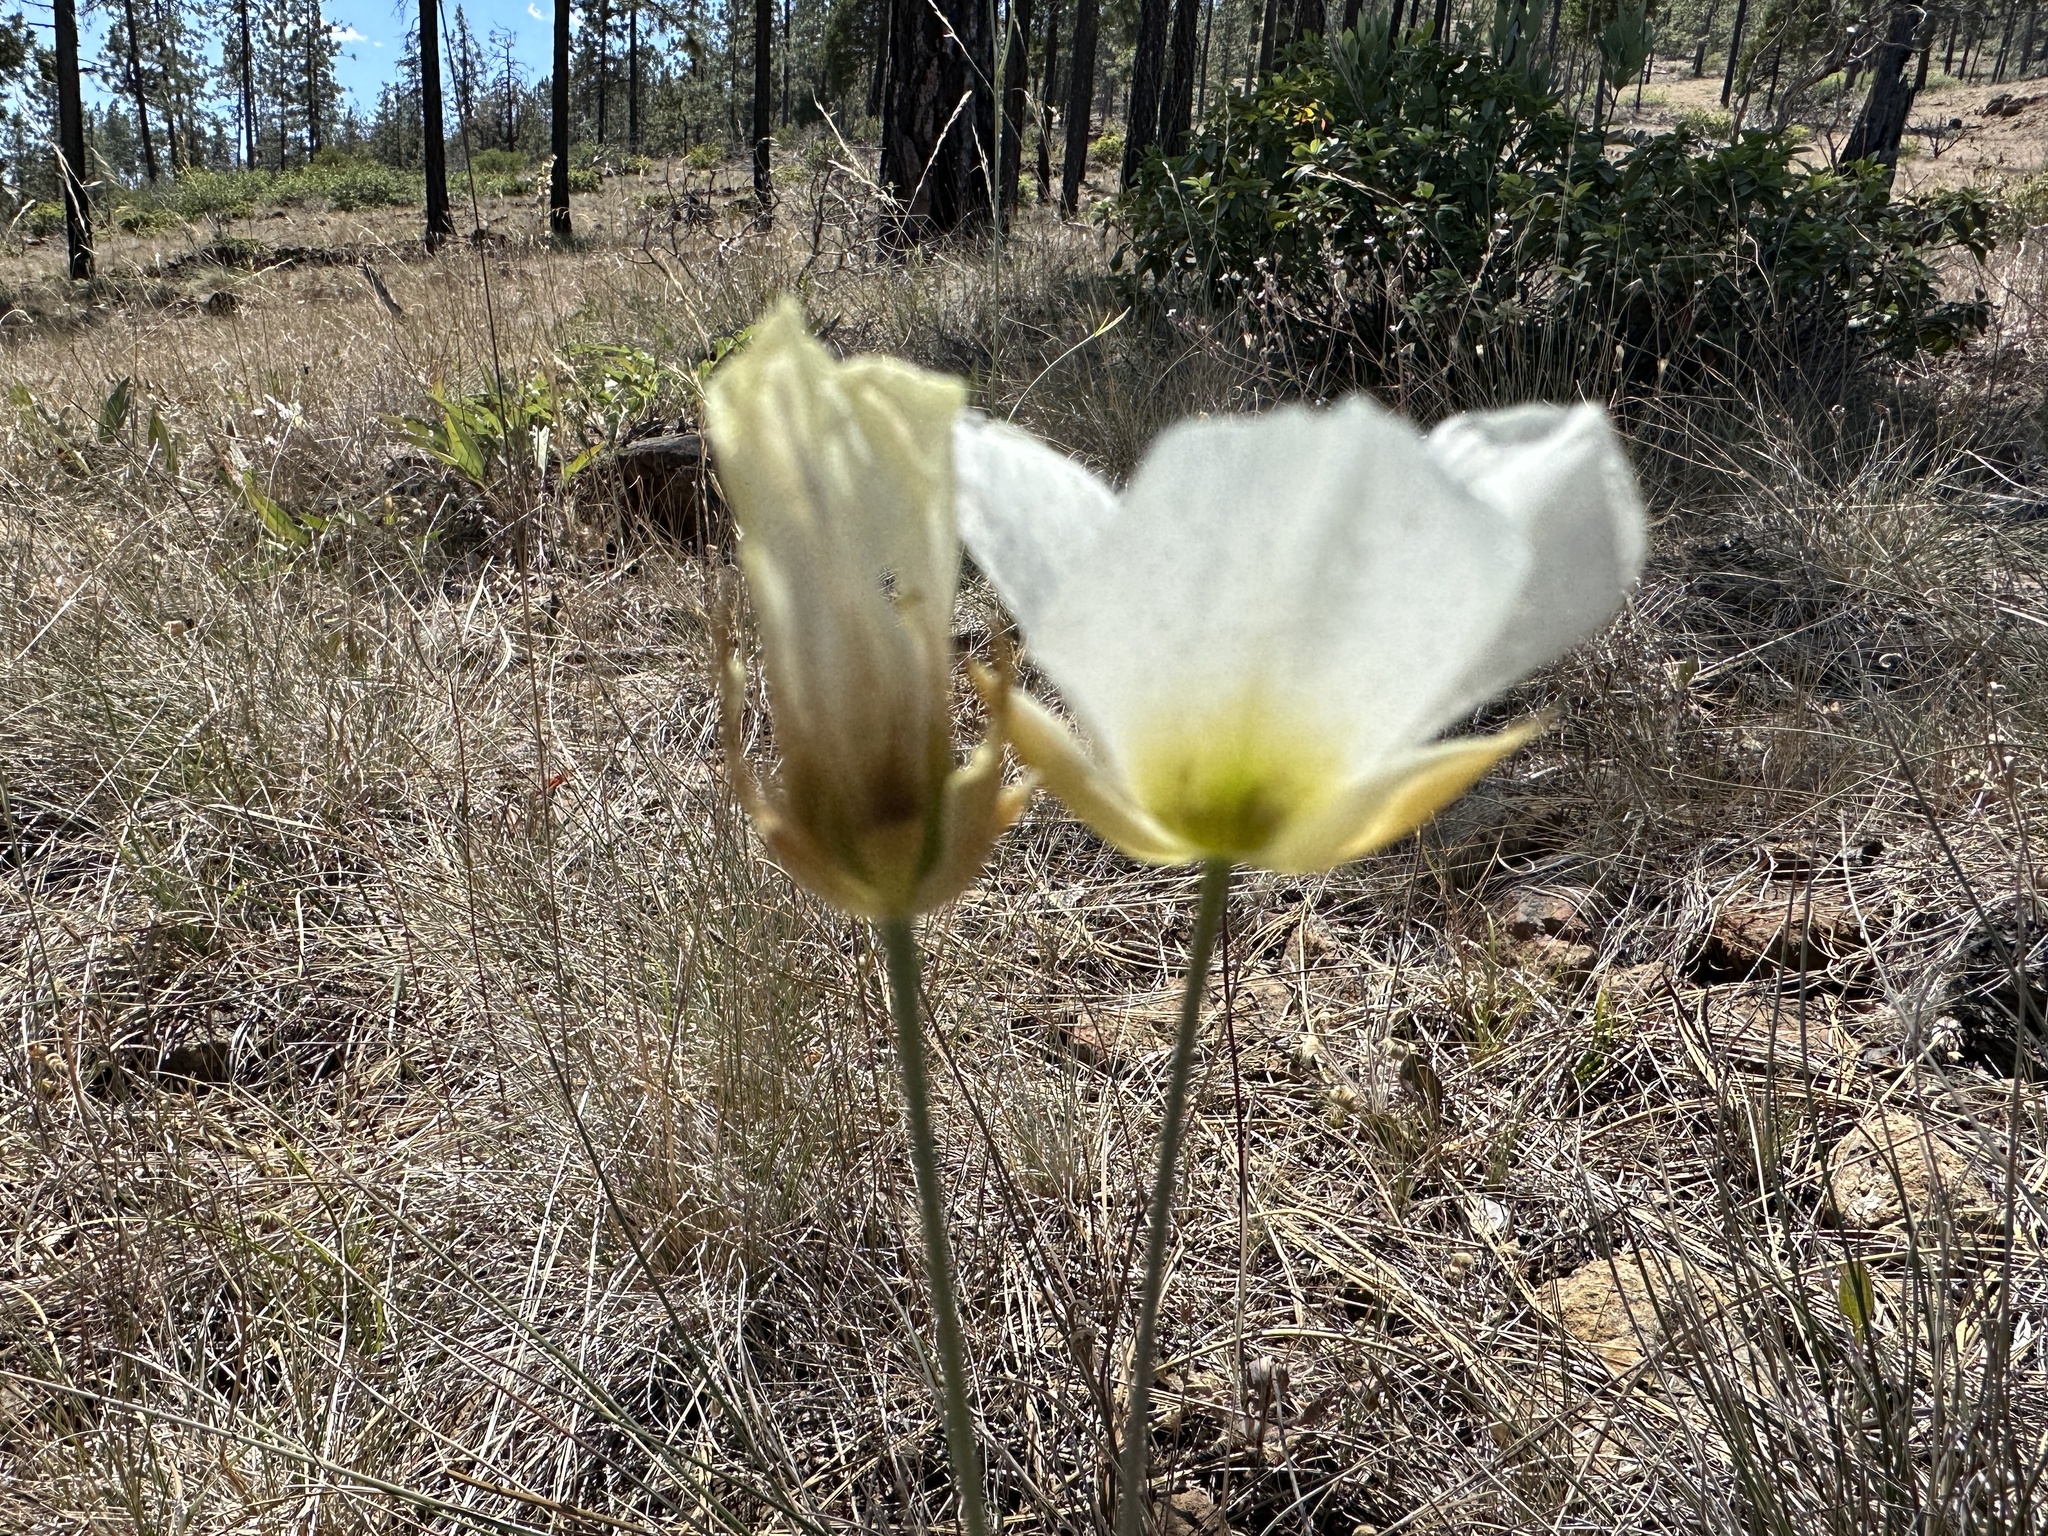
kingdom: Plantae
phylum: Tracheophyta
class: Liliopsida
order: Liliales
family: Liliaceae
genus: Calochortus
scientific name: Calochortus howellii
